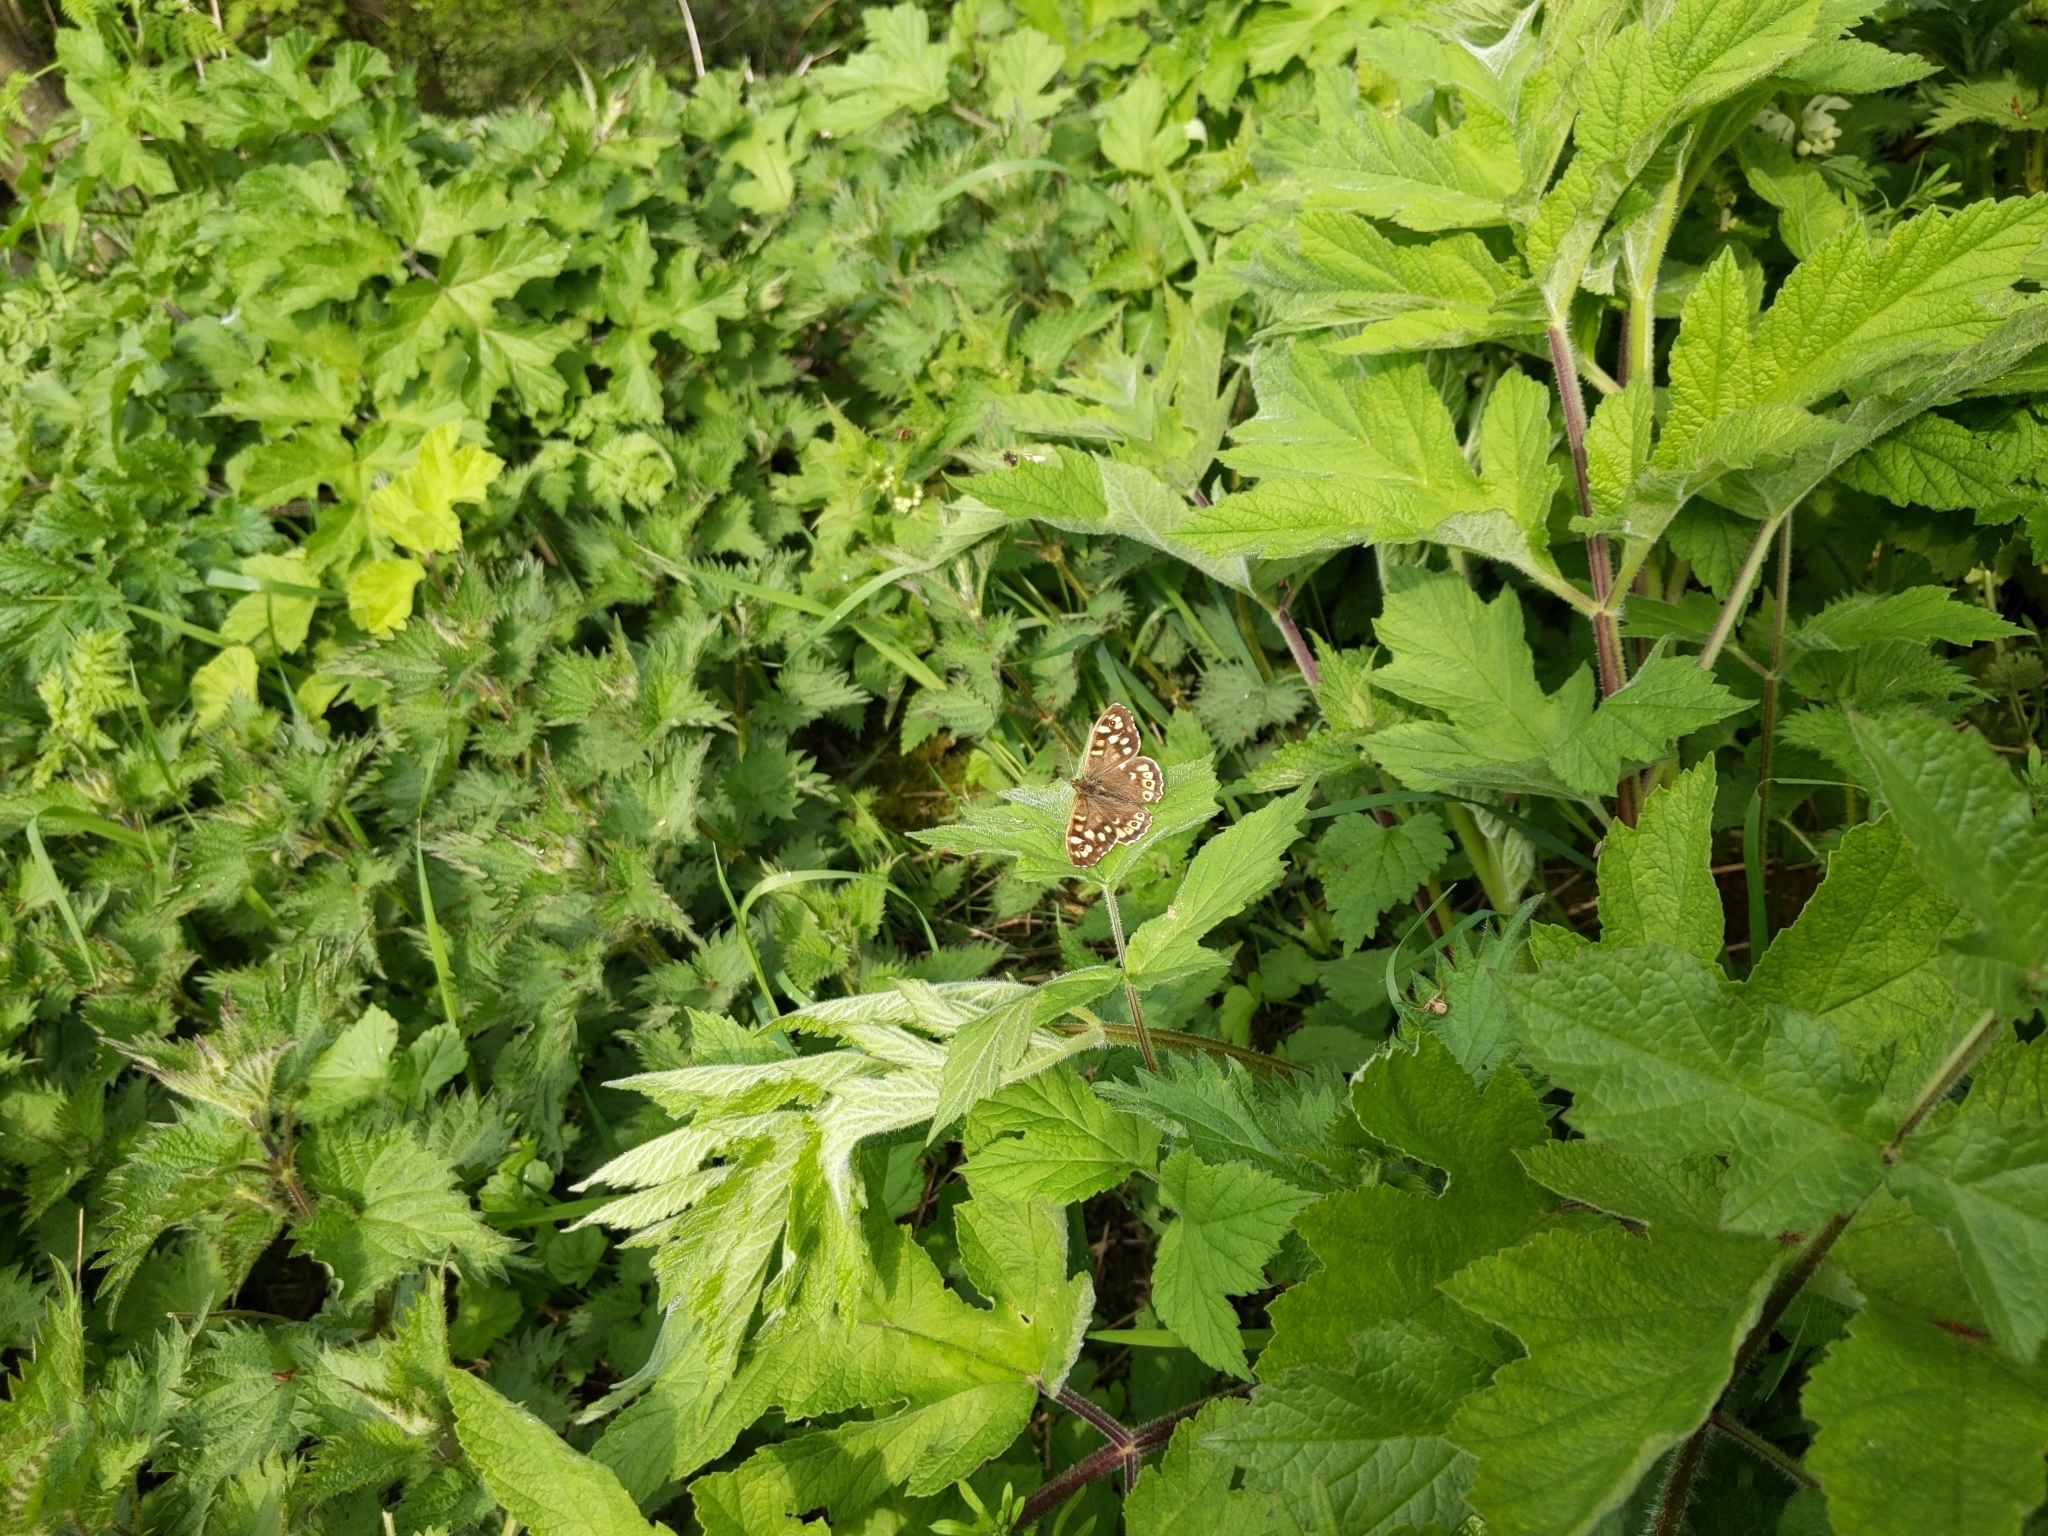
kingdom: Animalia
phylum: Arthropoda
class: Insecta
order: Lepidoptera
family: Nymphalidae
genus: Pararge
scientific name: Pararge aegeria
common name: Speckled wood
